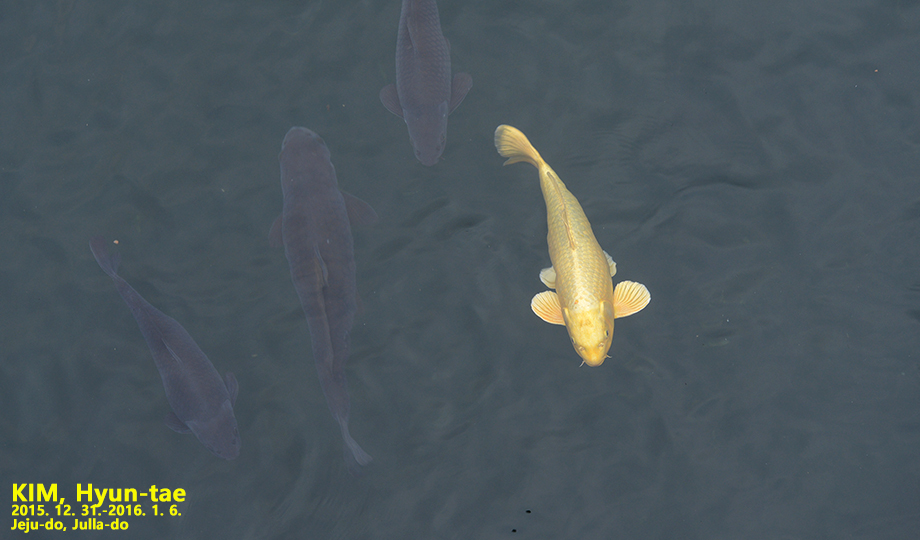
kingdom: Animalia
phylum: Chordata
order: Cypriniformes
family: Cyprinidae
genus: Cyprinus
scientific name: Cyprinus rubrofuscus
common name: Koi
